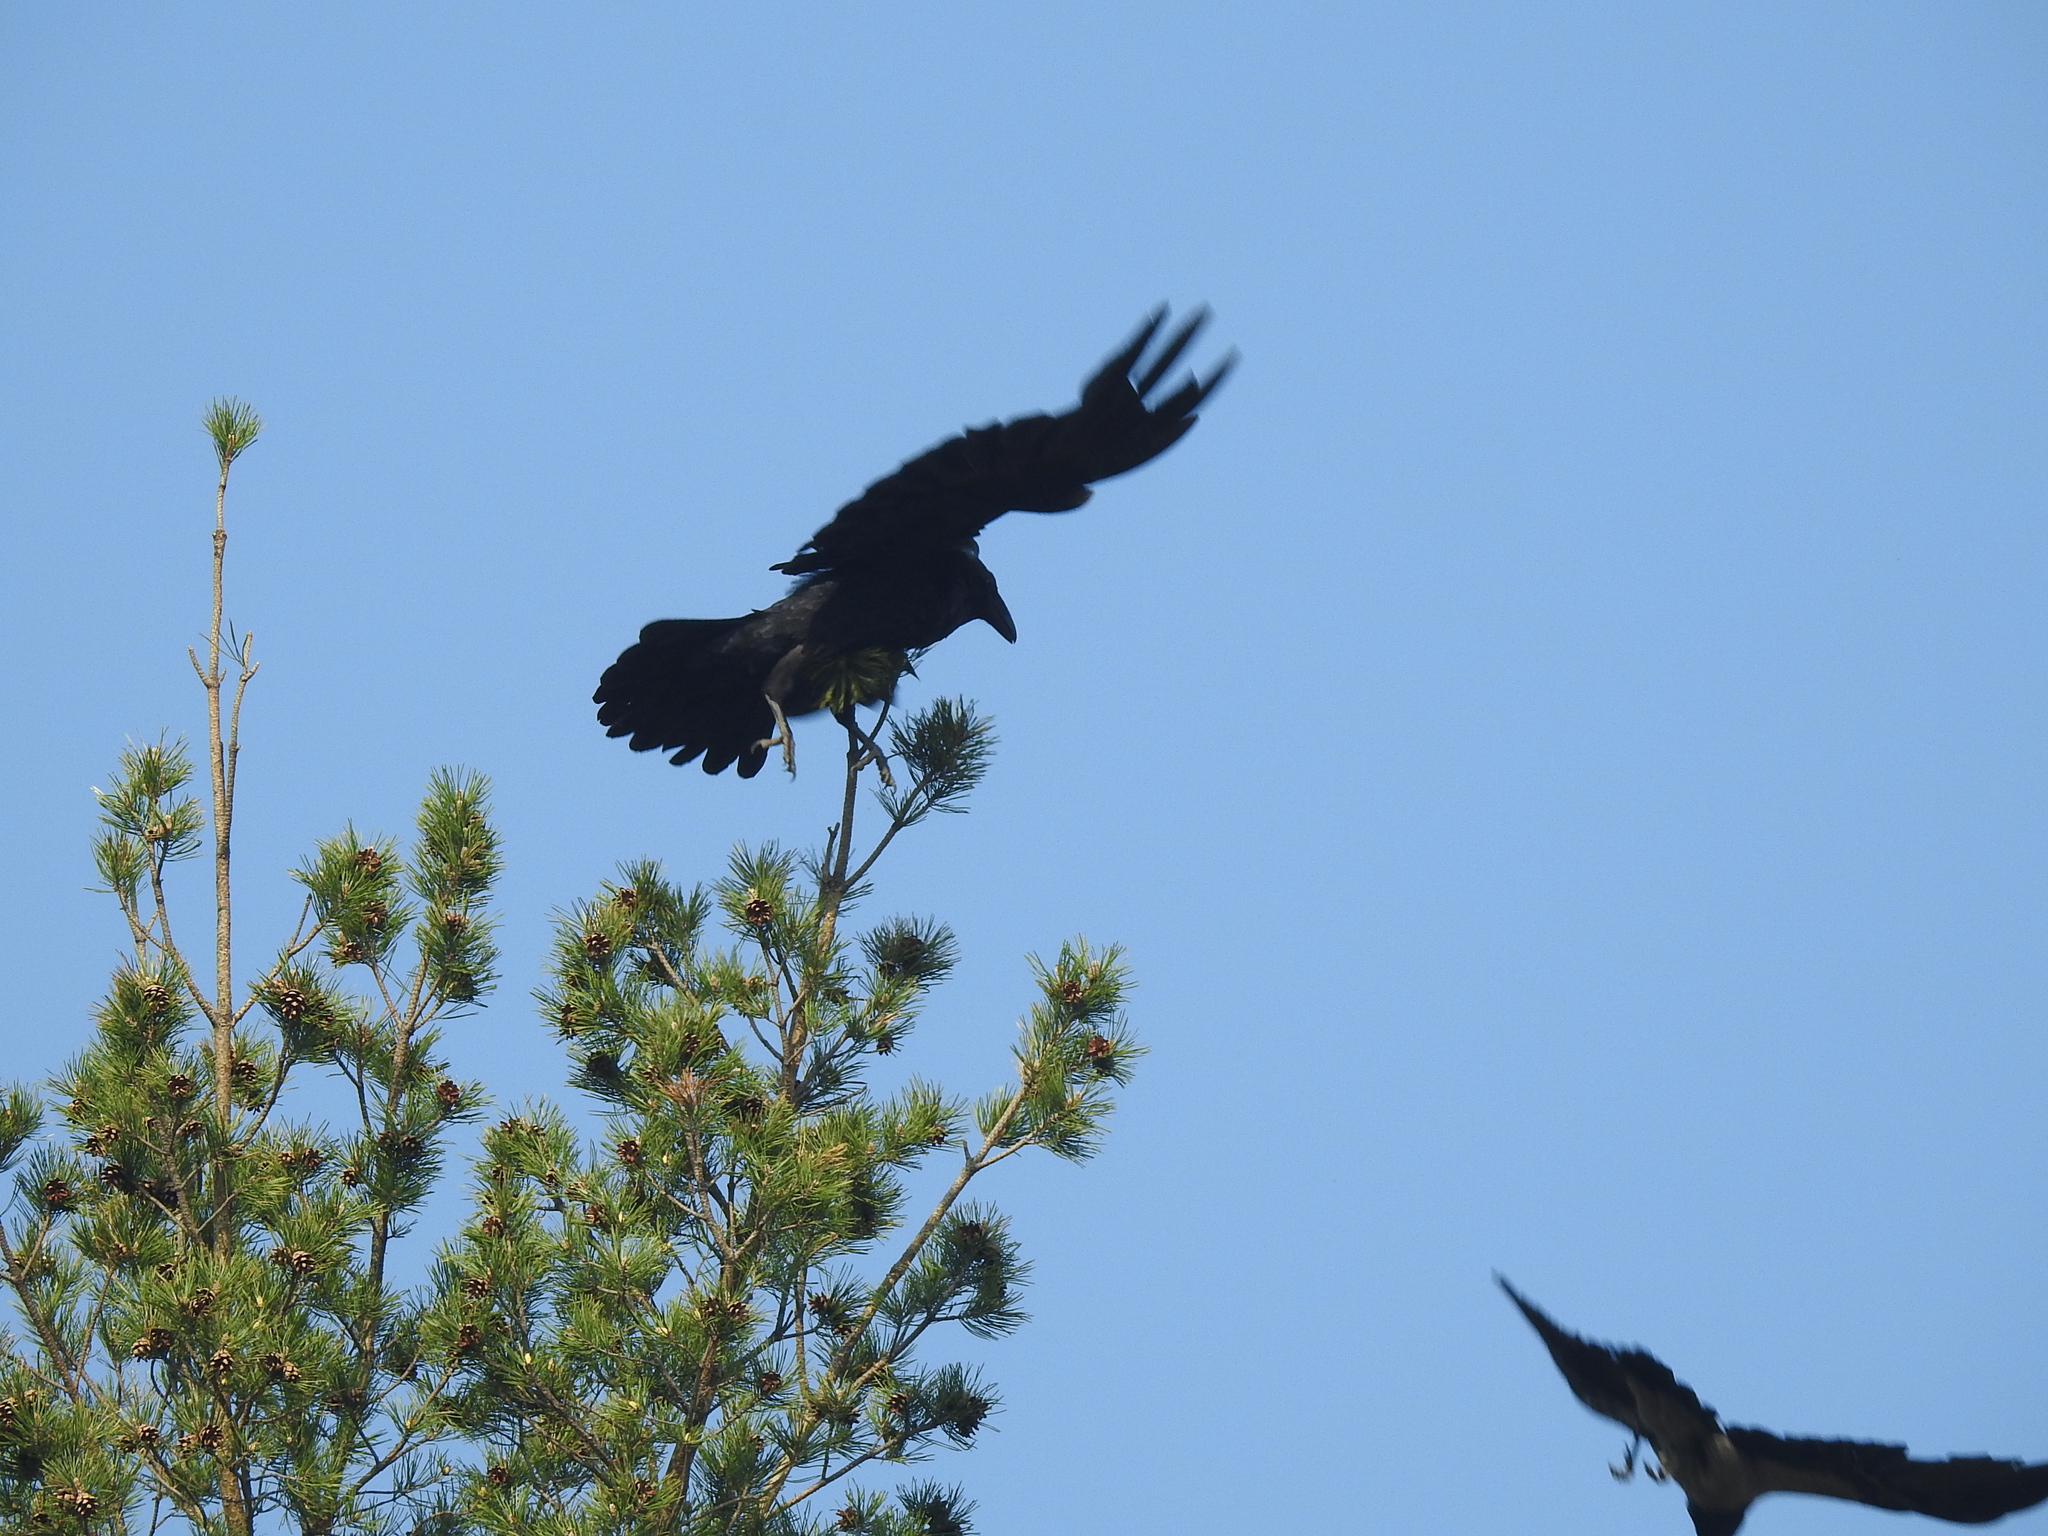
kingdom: Animalia
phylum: Chordata
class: Aves
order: Passeriformes
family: Corvidae
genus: Corvus
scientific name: Corvus corax
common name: Common raven
